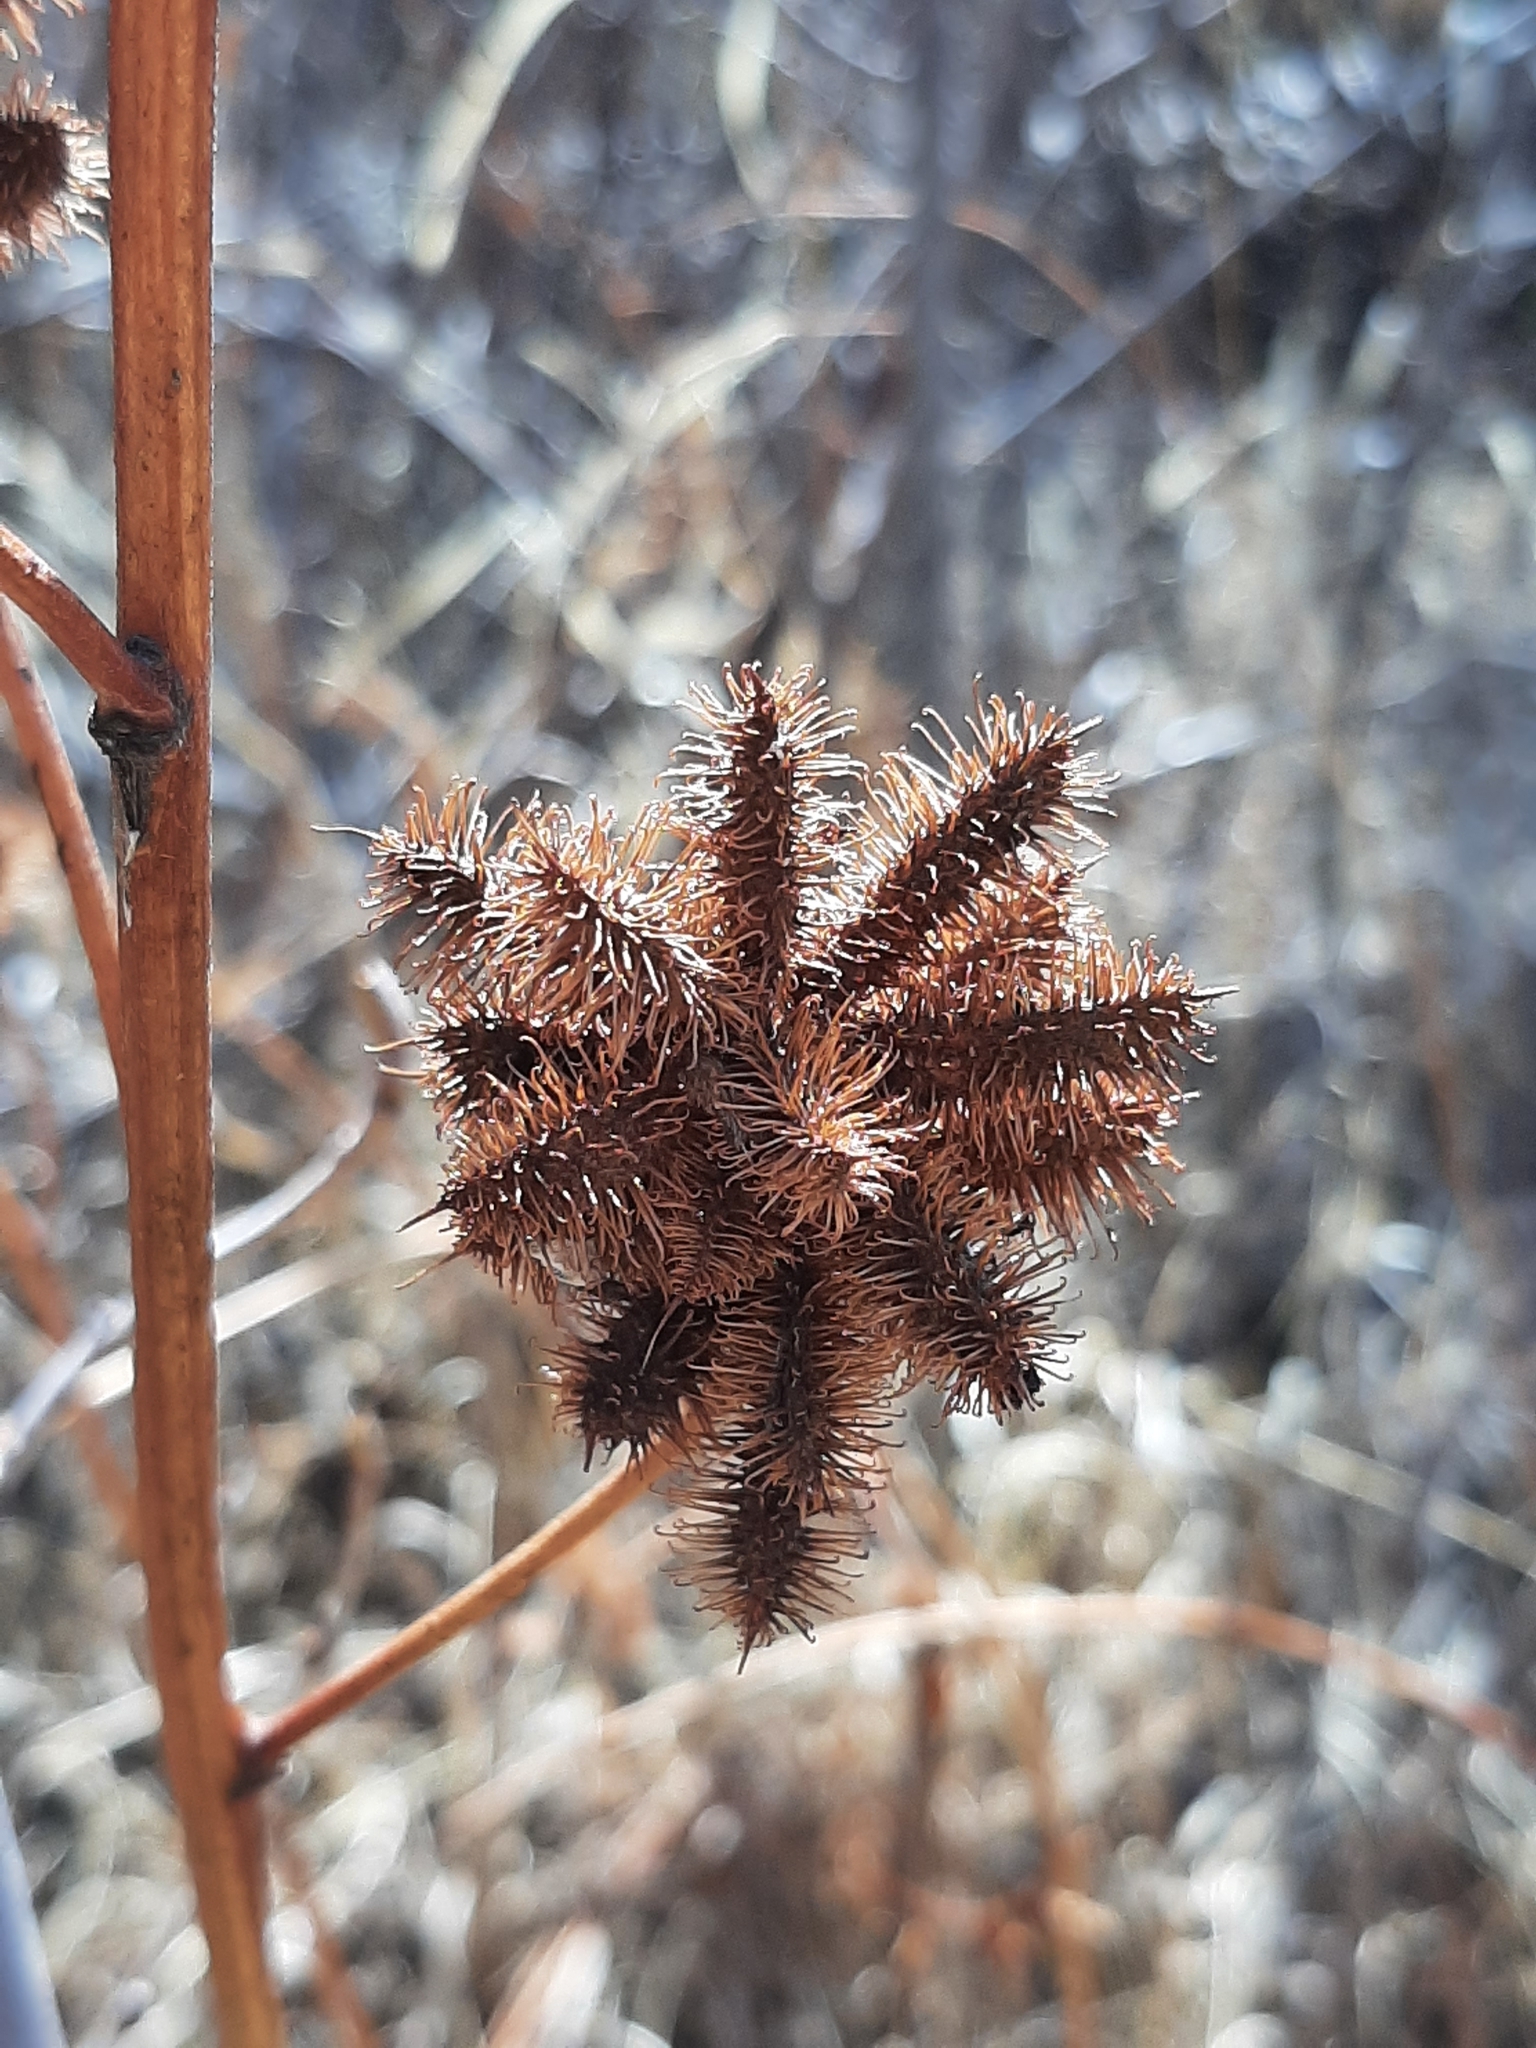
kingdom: Plantae
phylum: Tracheophyta
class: Magnoliopsida
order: Fabales
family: Fabaceae
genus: Glycyrrhiza
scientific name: Glycyrrhiza lepidota
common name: American liquorice
